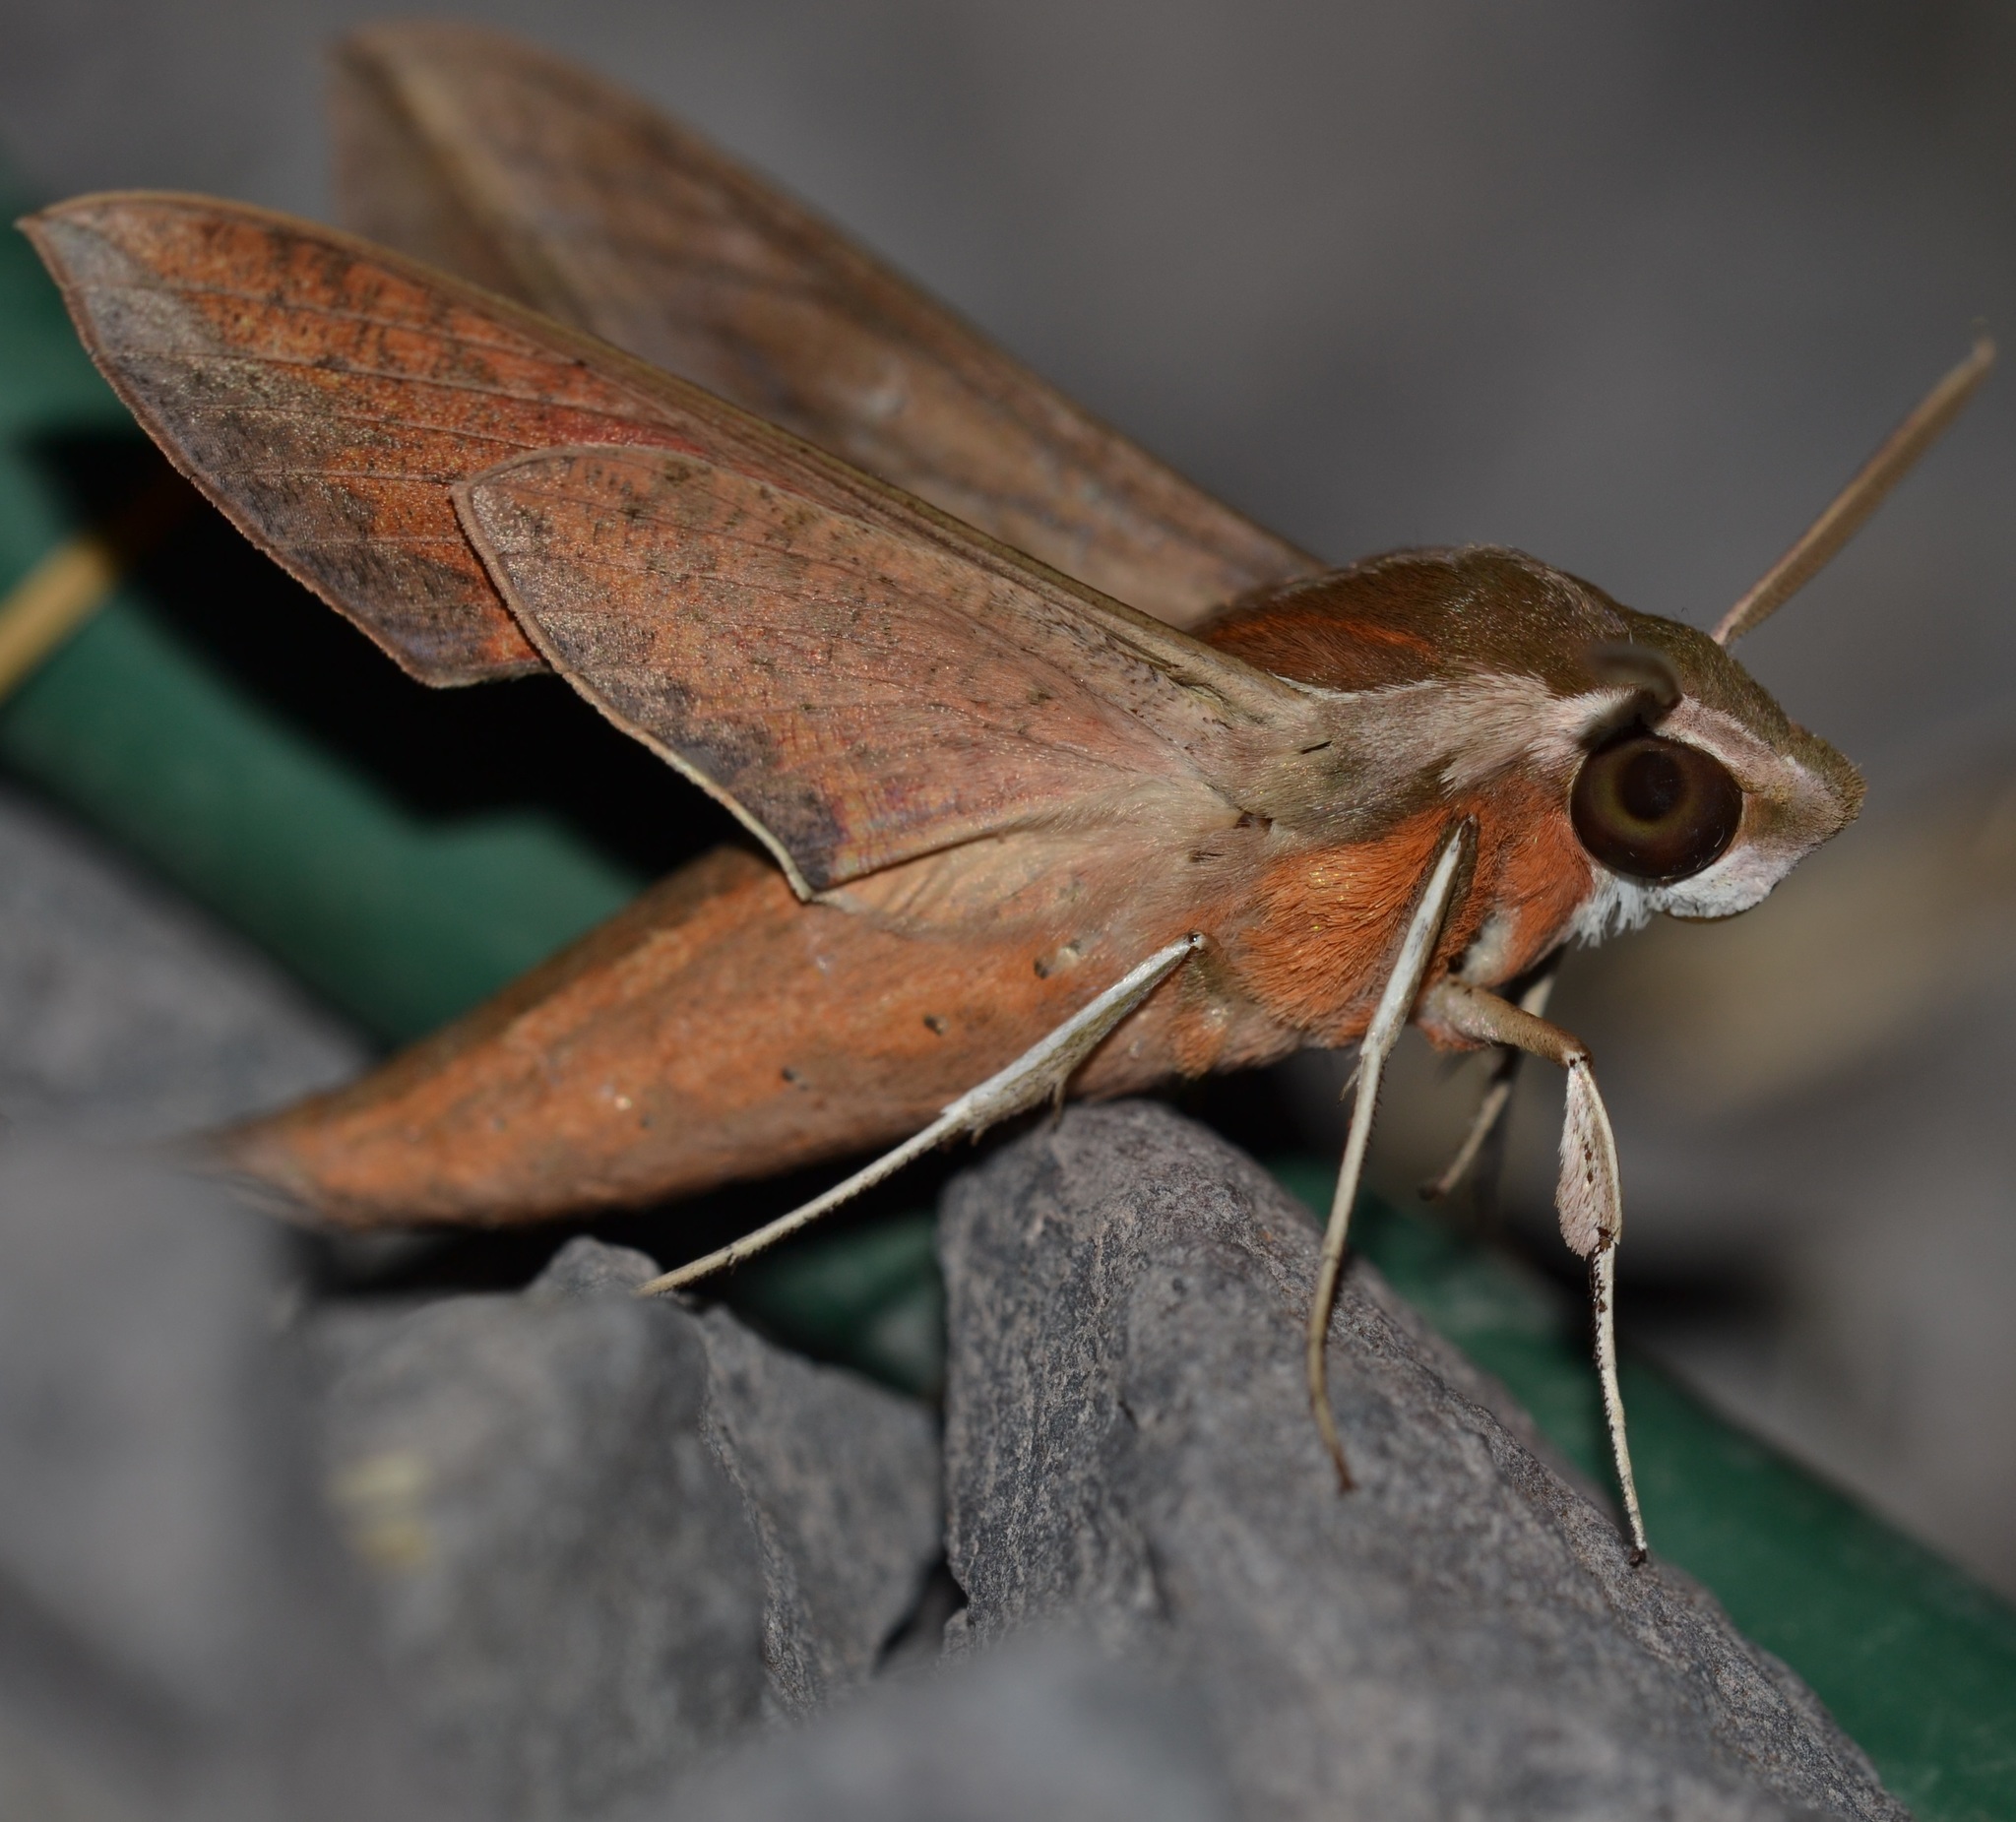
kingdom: Animalia
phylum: Arthropoda
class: Insecta
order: Lepidoptera
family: Sphingidae
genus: Hippotion
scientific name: Hippotion rosetta
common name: Vine hawk moth
